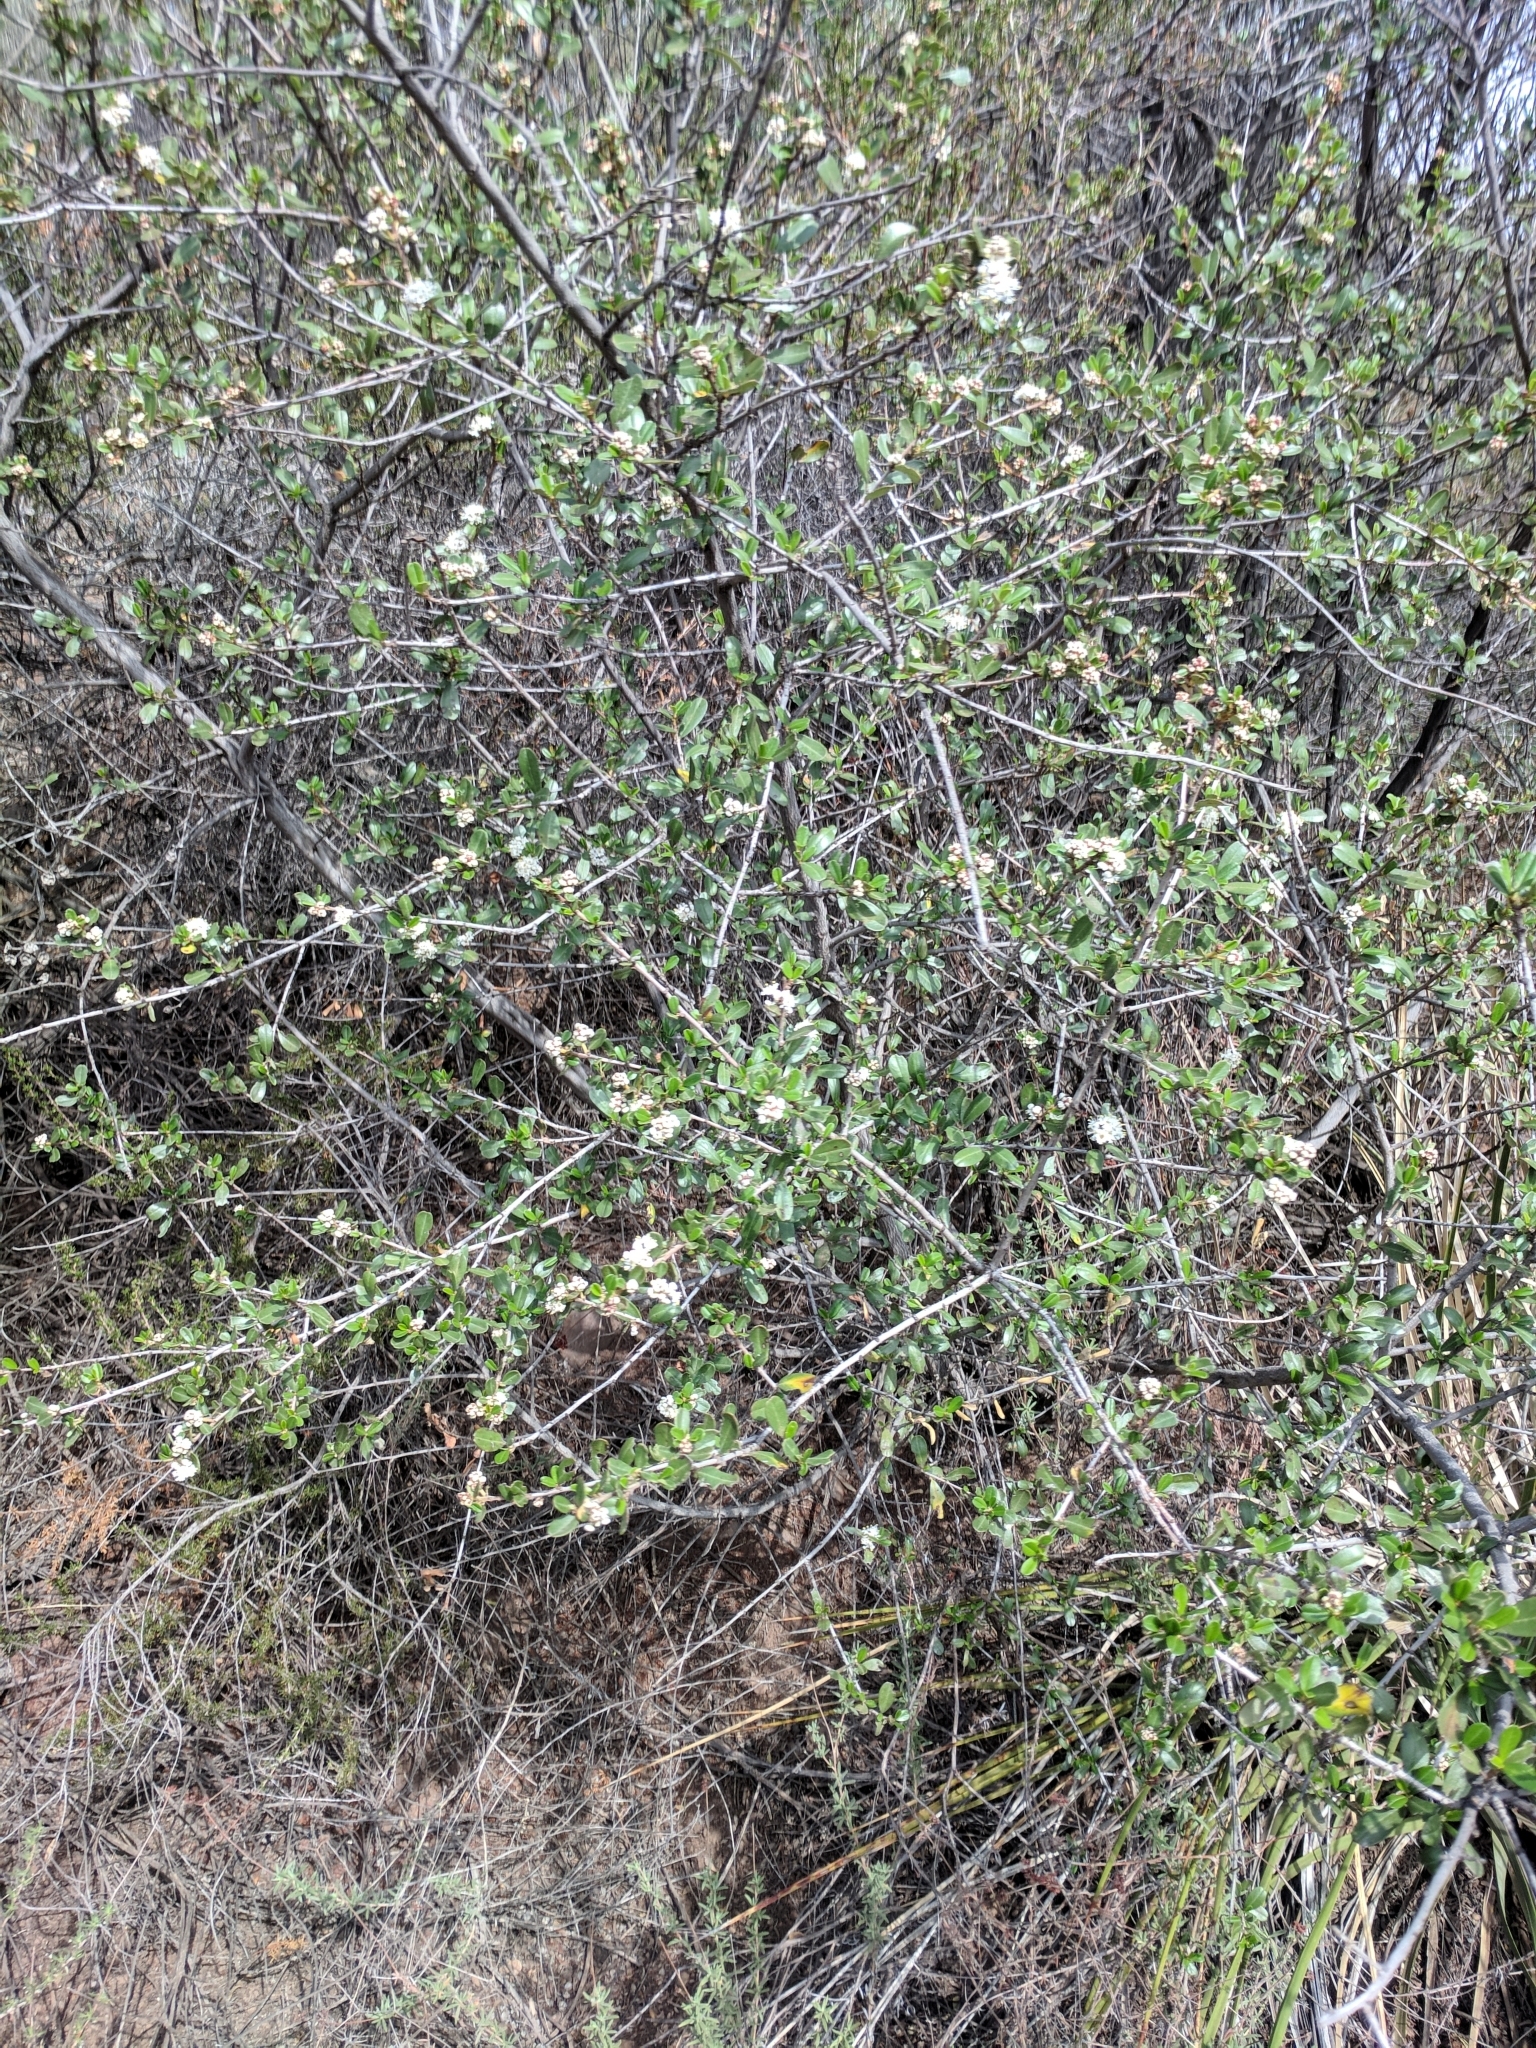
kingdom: Plantae
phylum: Tracheophyta
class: Magnoliopsida
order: Rosales
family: Rhamnaceae
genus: Ceanothus
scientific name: Ceanothus megacarpus
